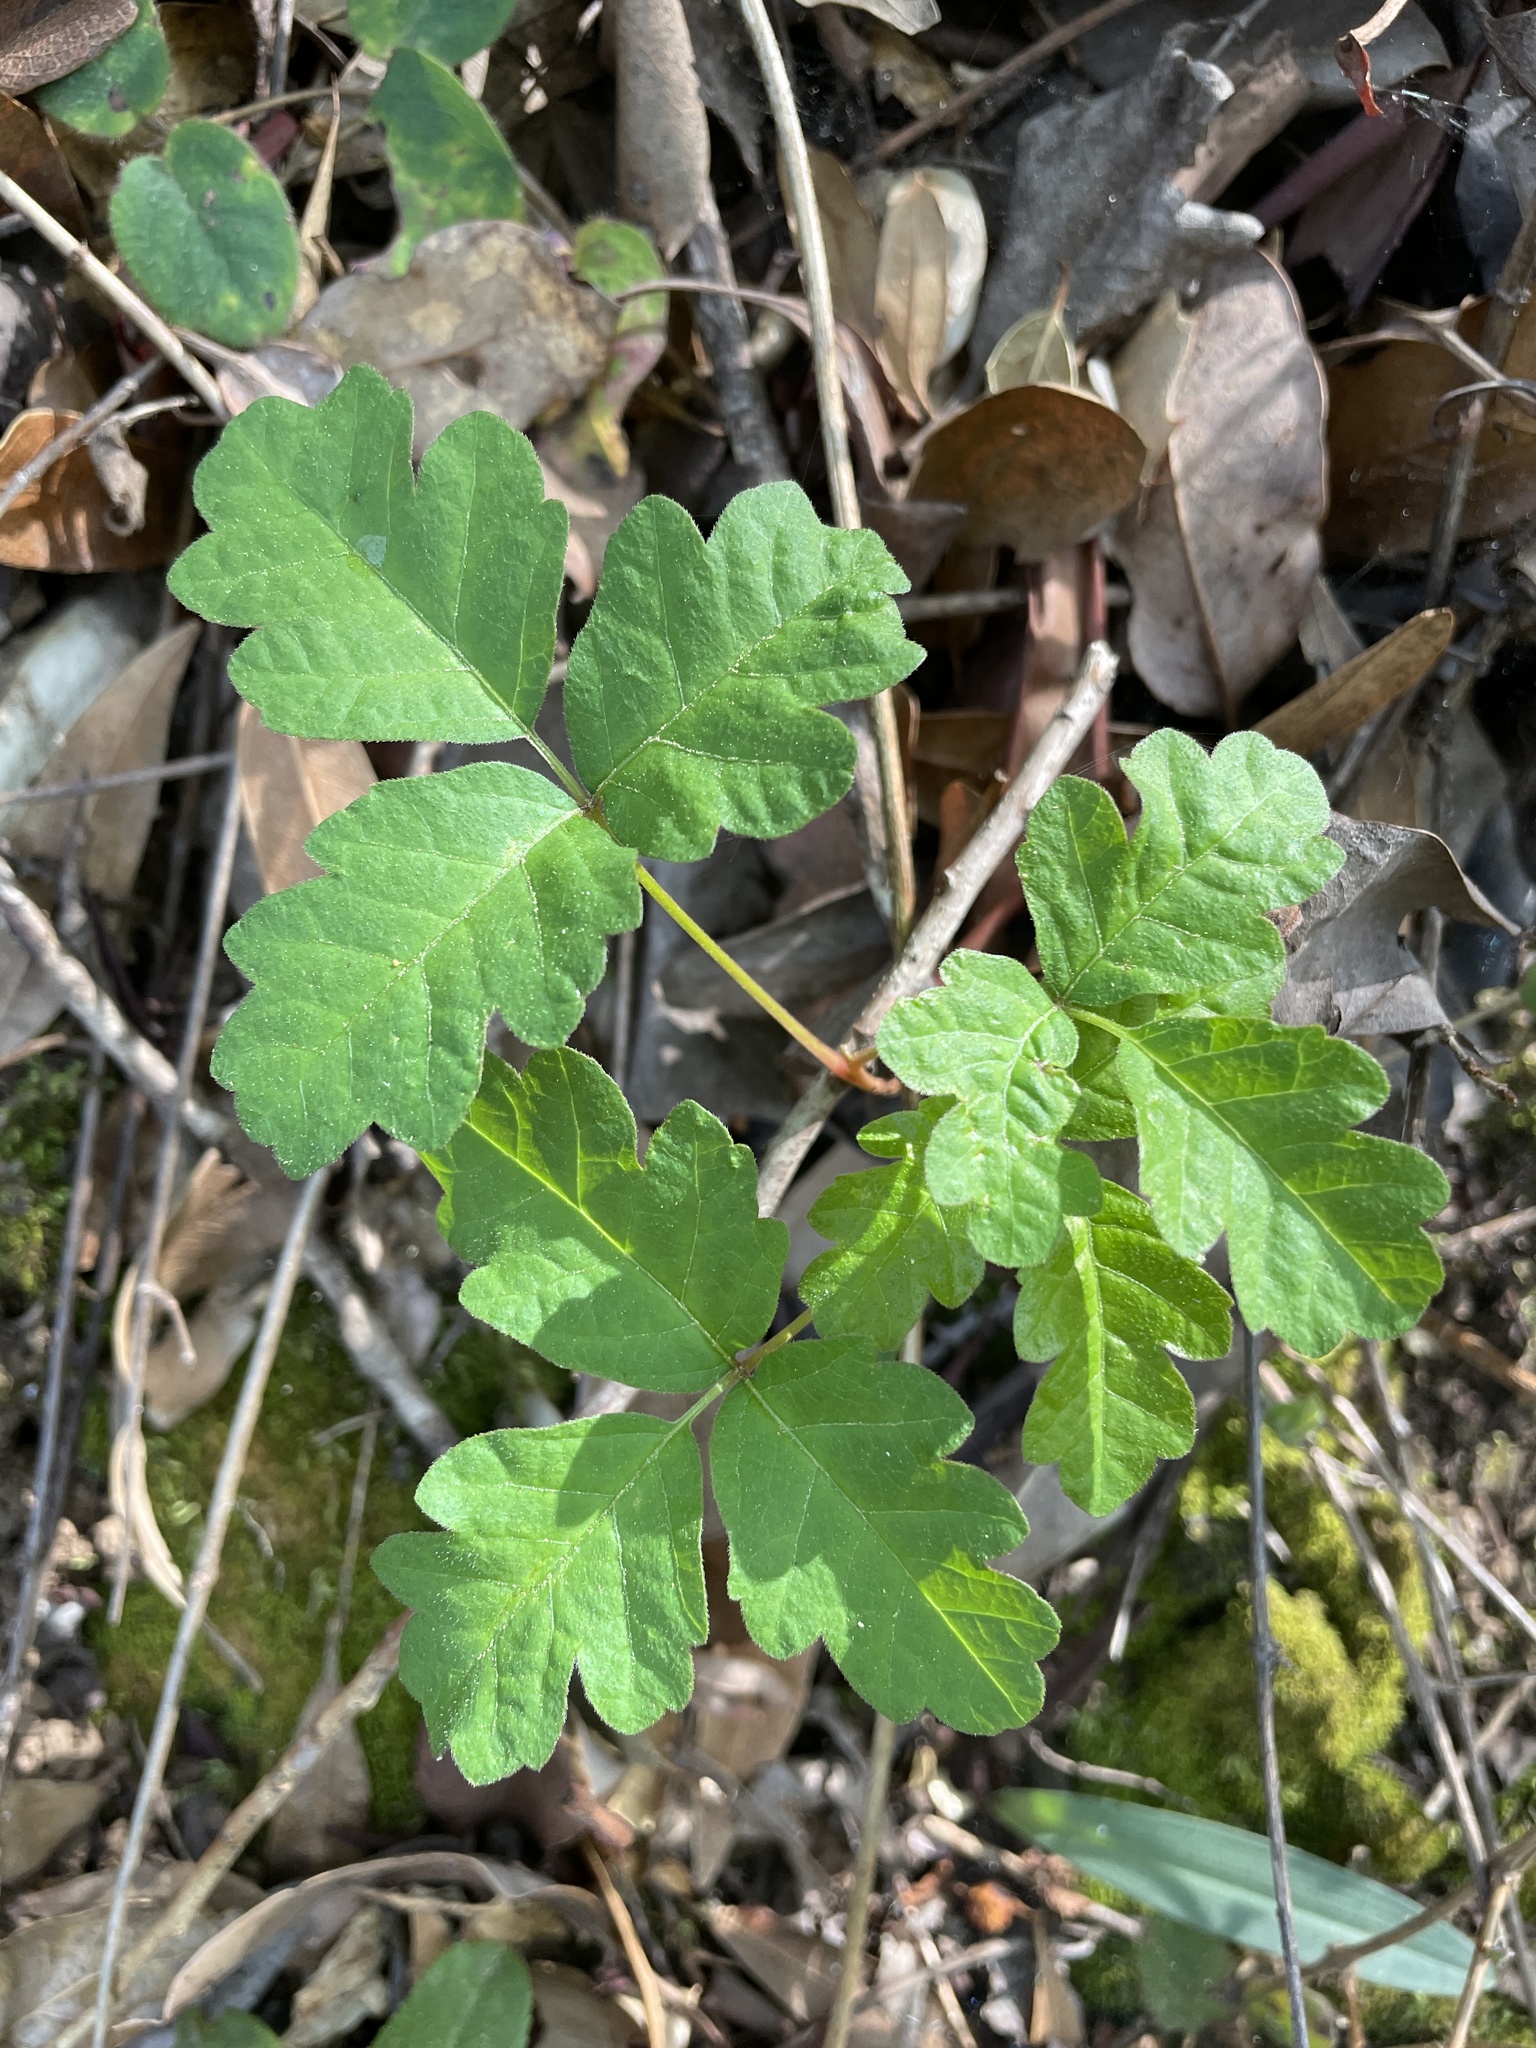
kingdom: Plantae
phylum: Tracheophyta
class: Magnoliopsida
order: Sapindales
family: Anacardiaceae
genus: Toxicodendron
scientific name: Toxicodendron diversilobum
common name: Pacific poison-oak
